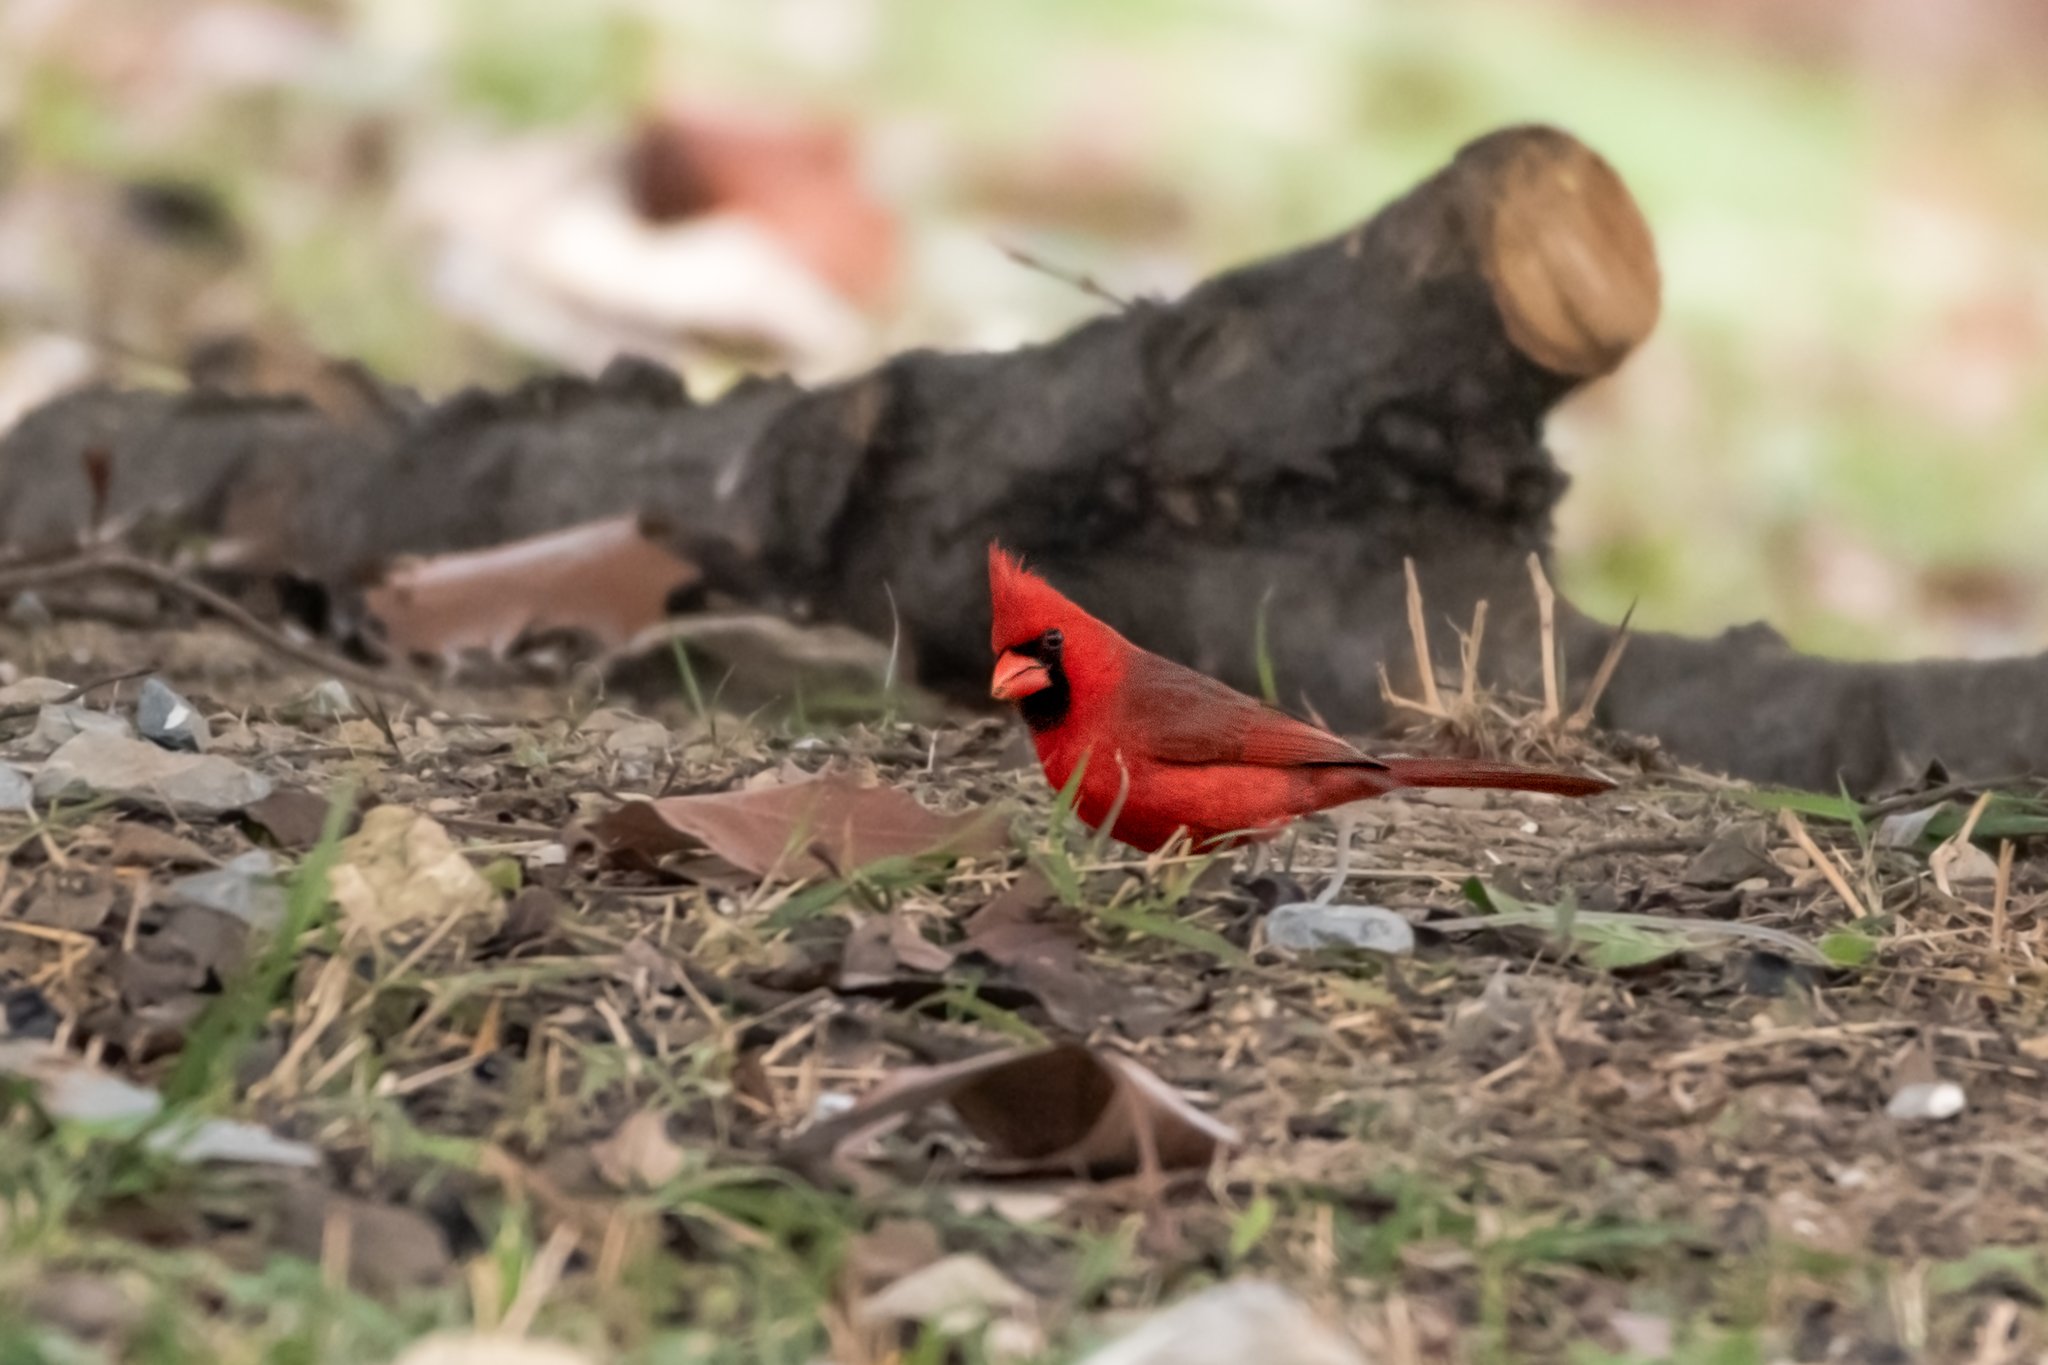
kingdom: Animalia
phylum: Chordata
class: Aves
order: Passeriformes
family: Cardinalidae
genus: Cardinalis
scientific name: Cardinalis cardinalis
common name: Northern cardinal
